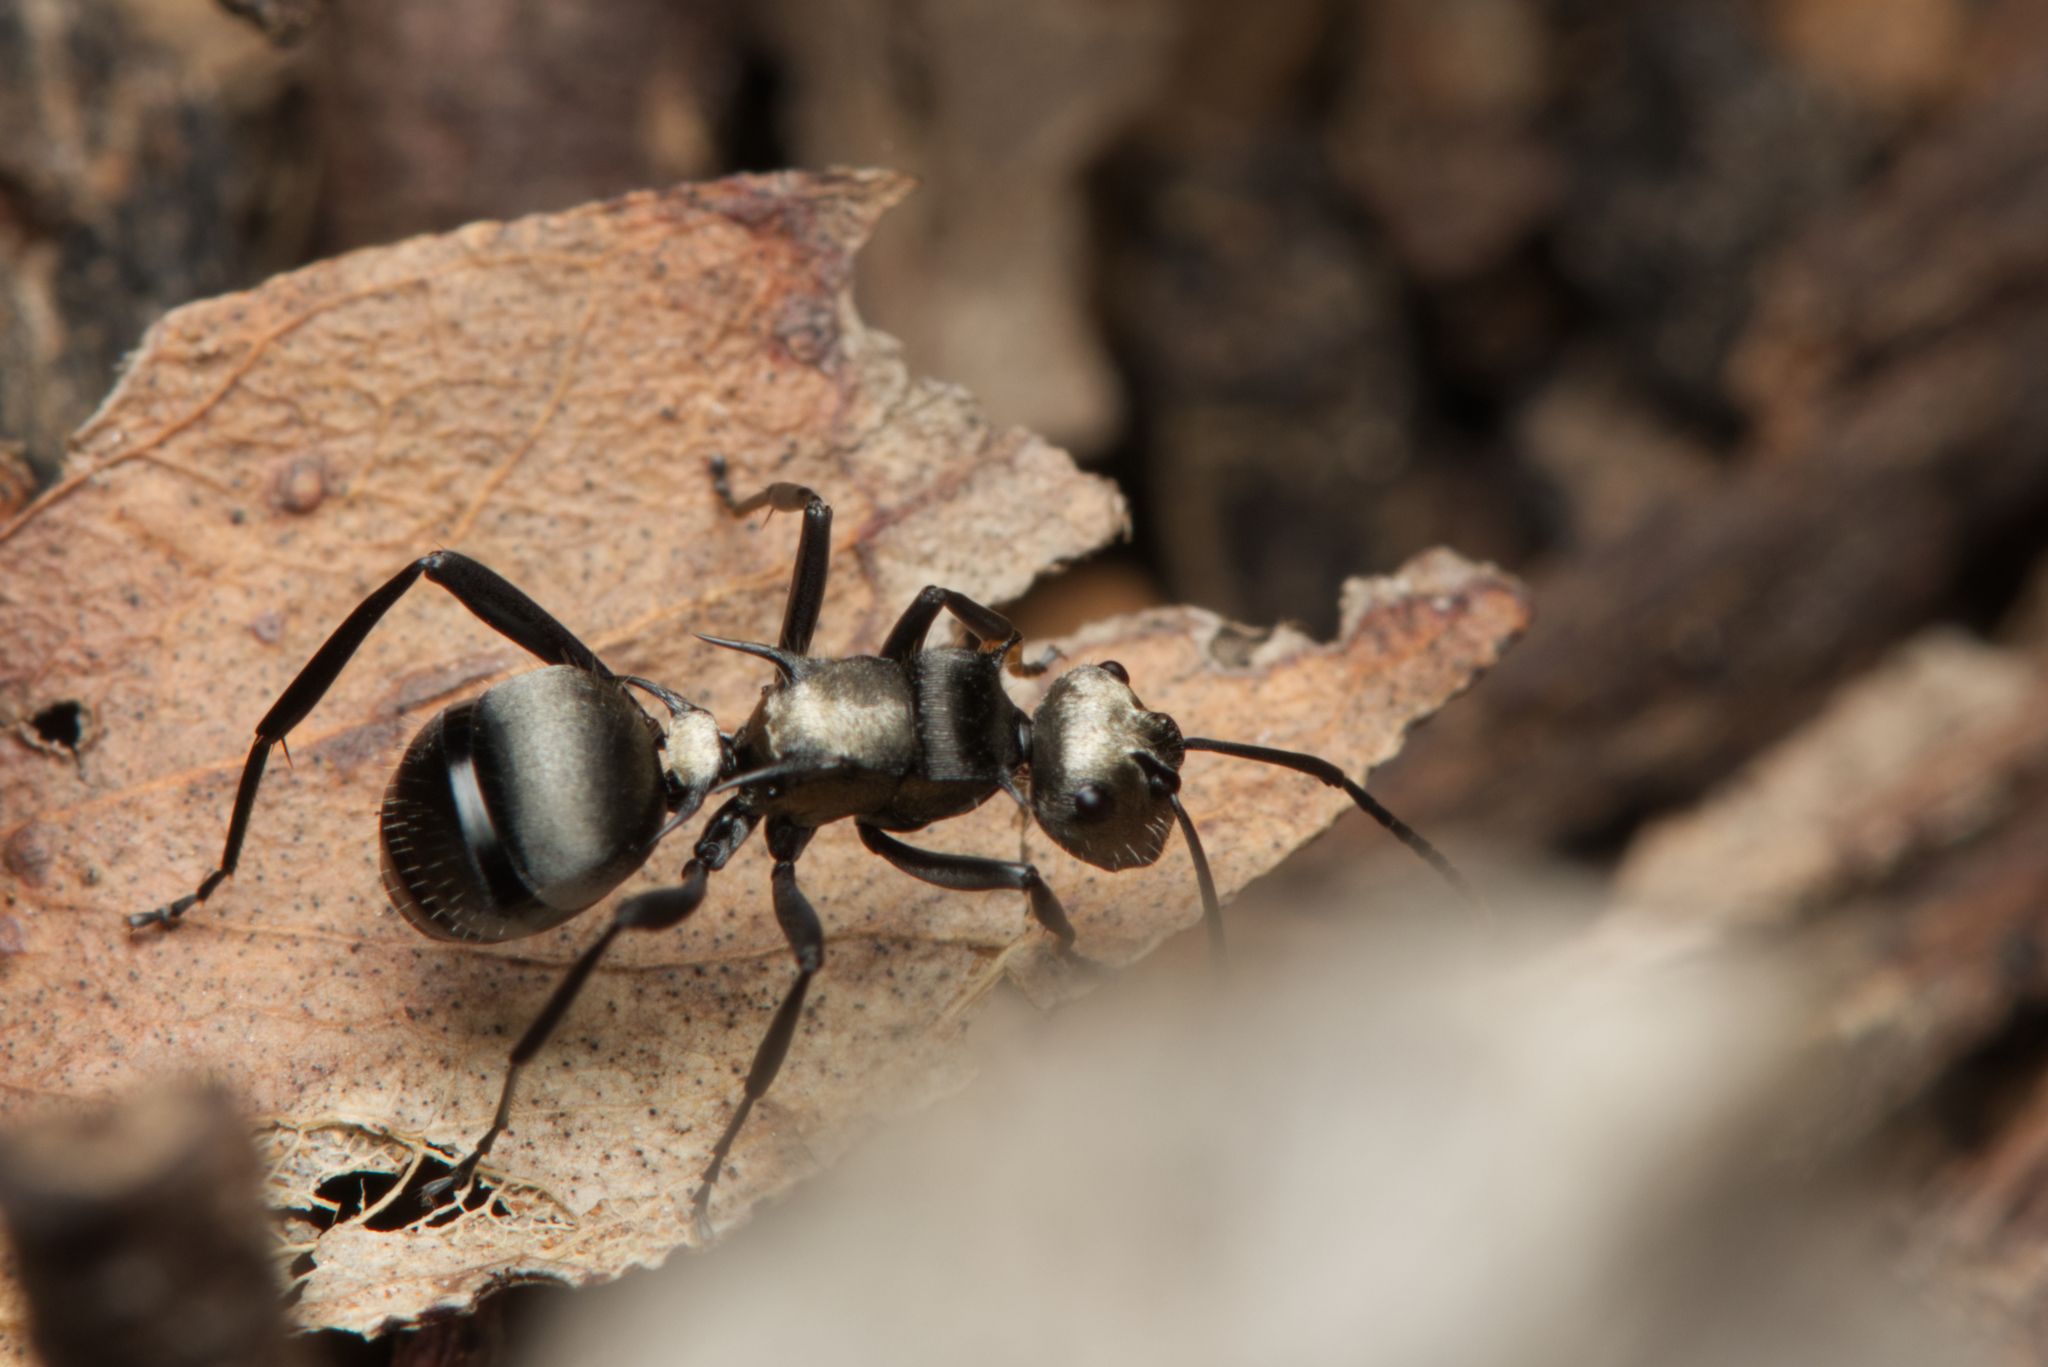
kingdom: Animalia
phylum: Arthropoda
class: Insecta
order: Hymenoptera
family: Formicidae
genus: Polyrhachis
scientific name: Polyrhachis daemeli
